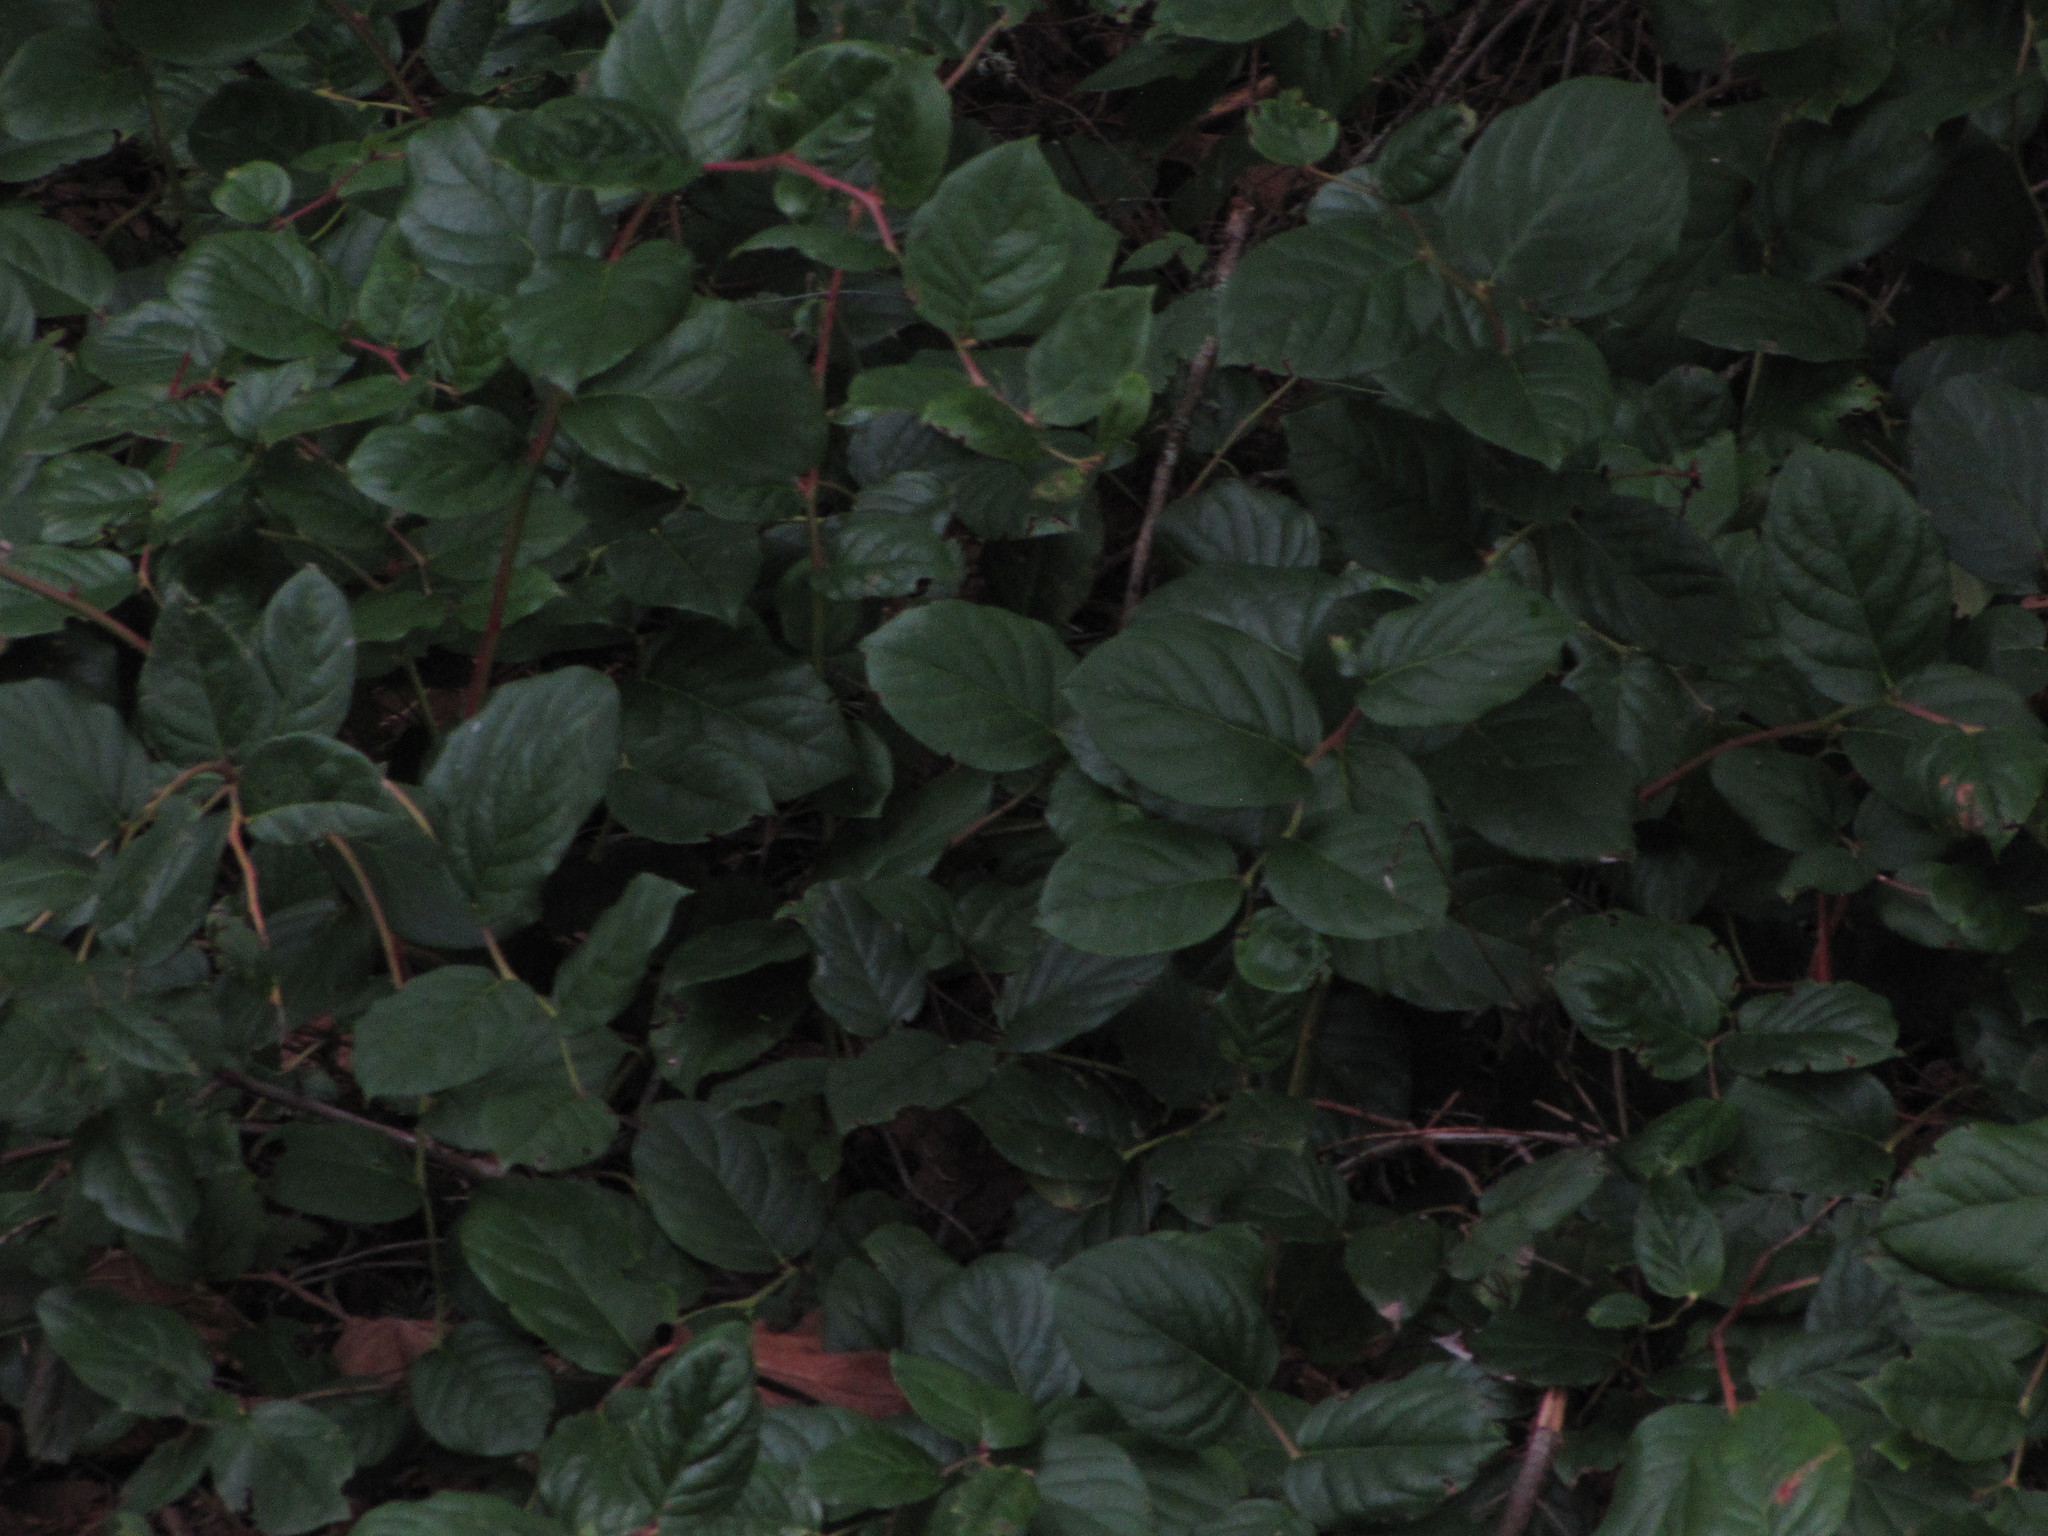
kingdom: Plantae
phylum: Tracheophyta
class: Magnoliopsida
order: Ericales
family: Ericaceae
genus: Gaultheria
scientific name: Gaultheria shallon
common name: Shallon
